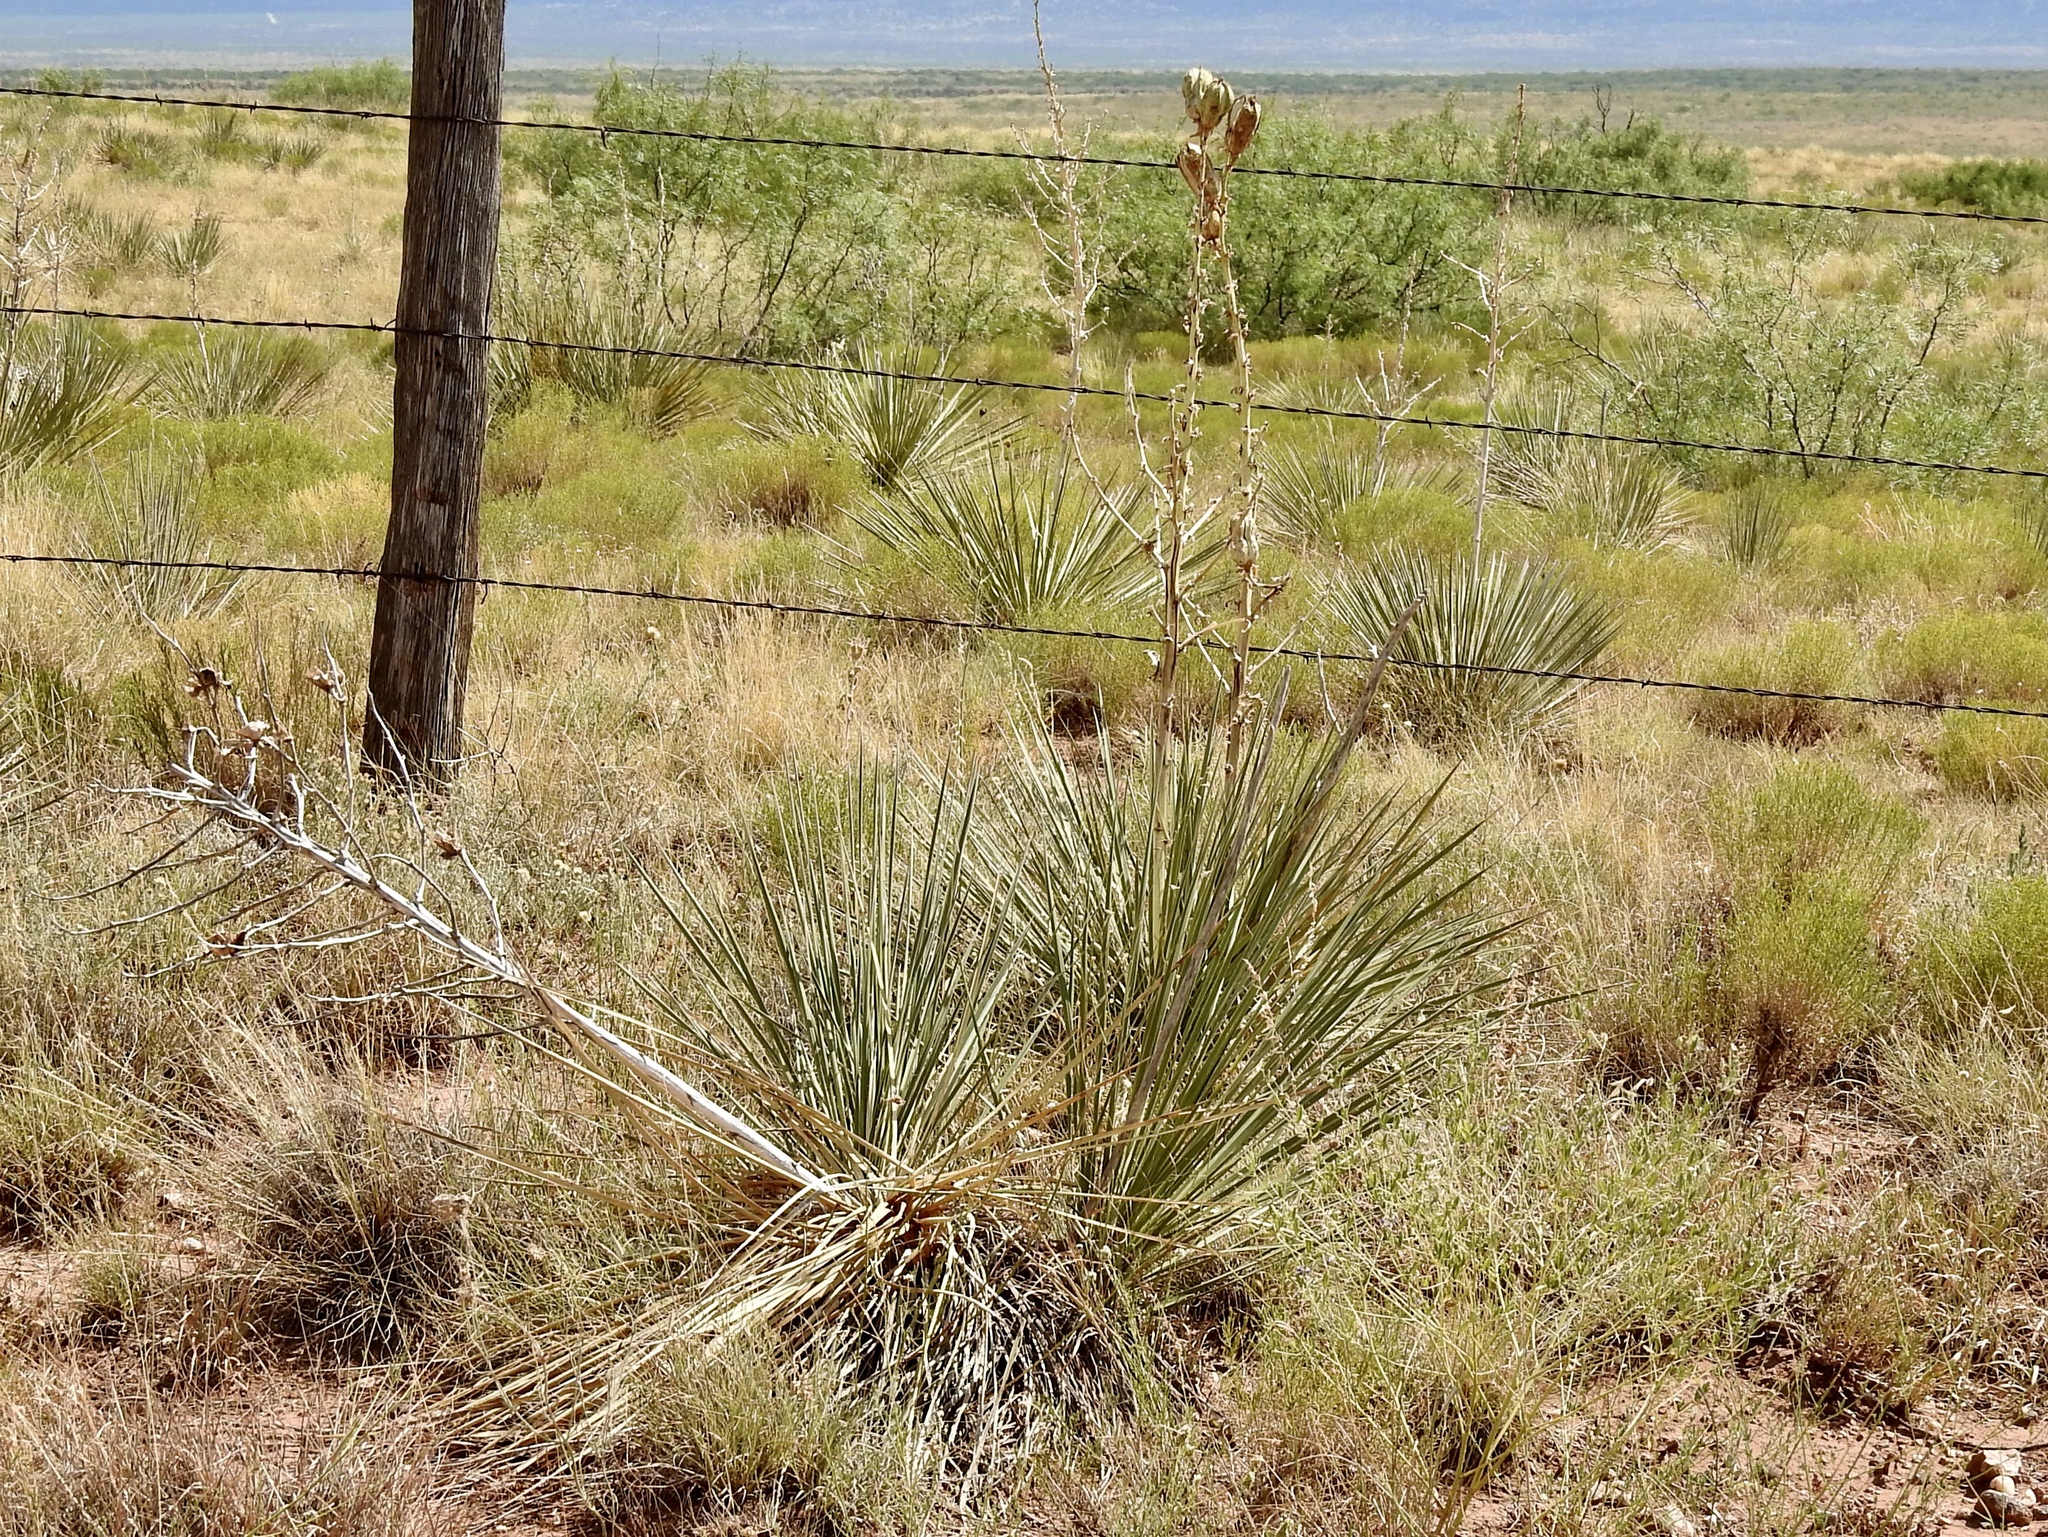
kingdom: Plantae
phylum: Tracheophyta
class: Liliopsida
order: Asparagales
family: Asparagaceae
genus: Yucca
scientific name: Yucca campestris
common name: Plains yucca
